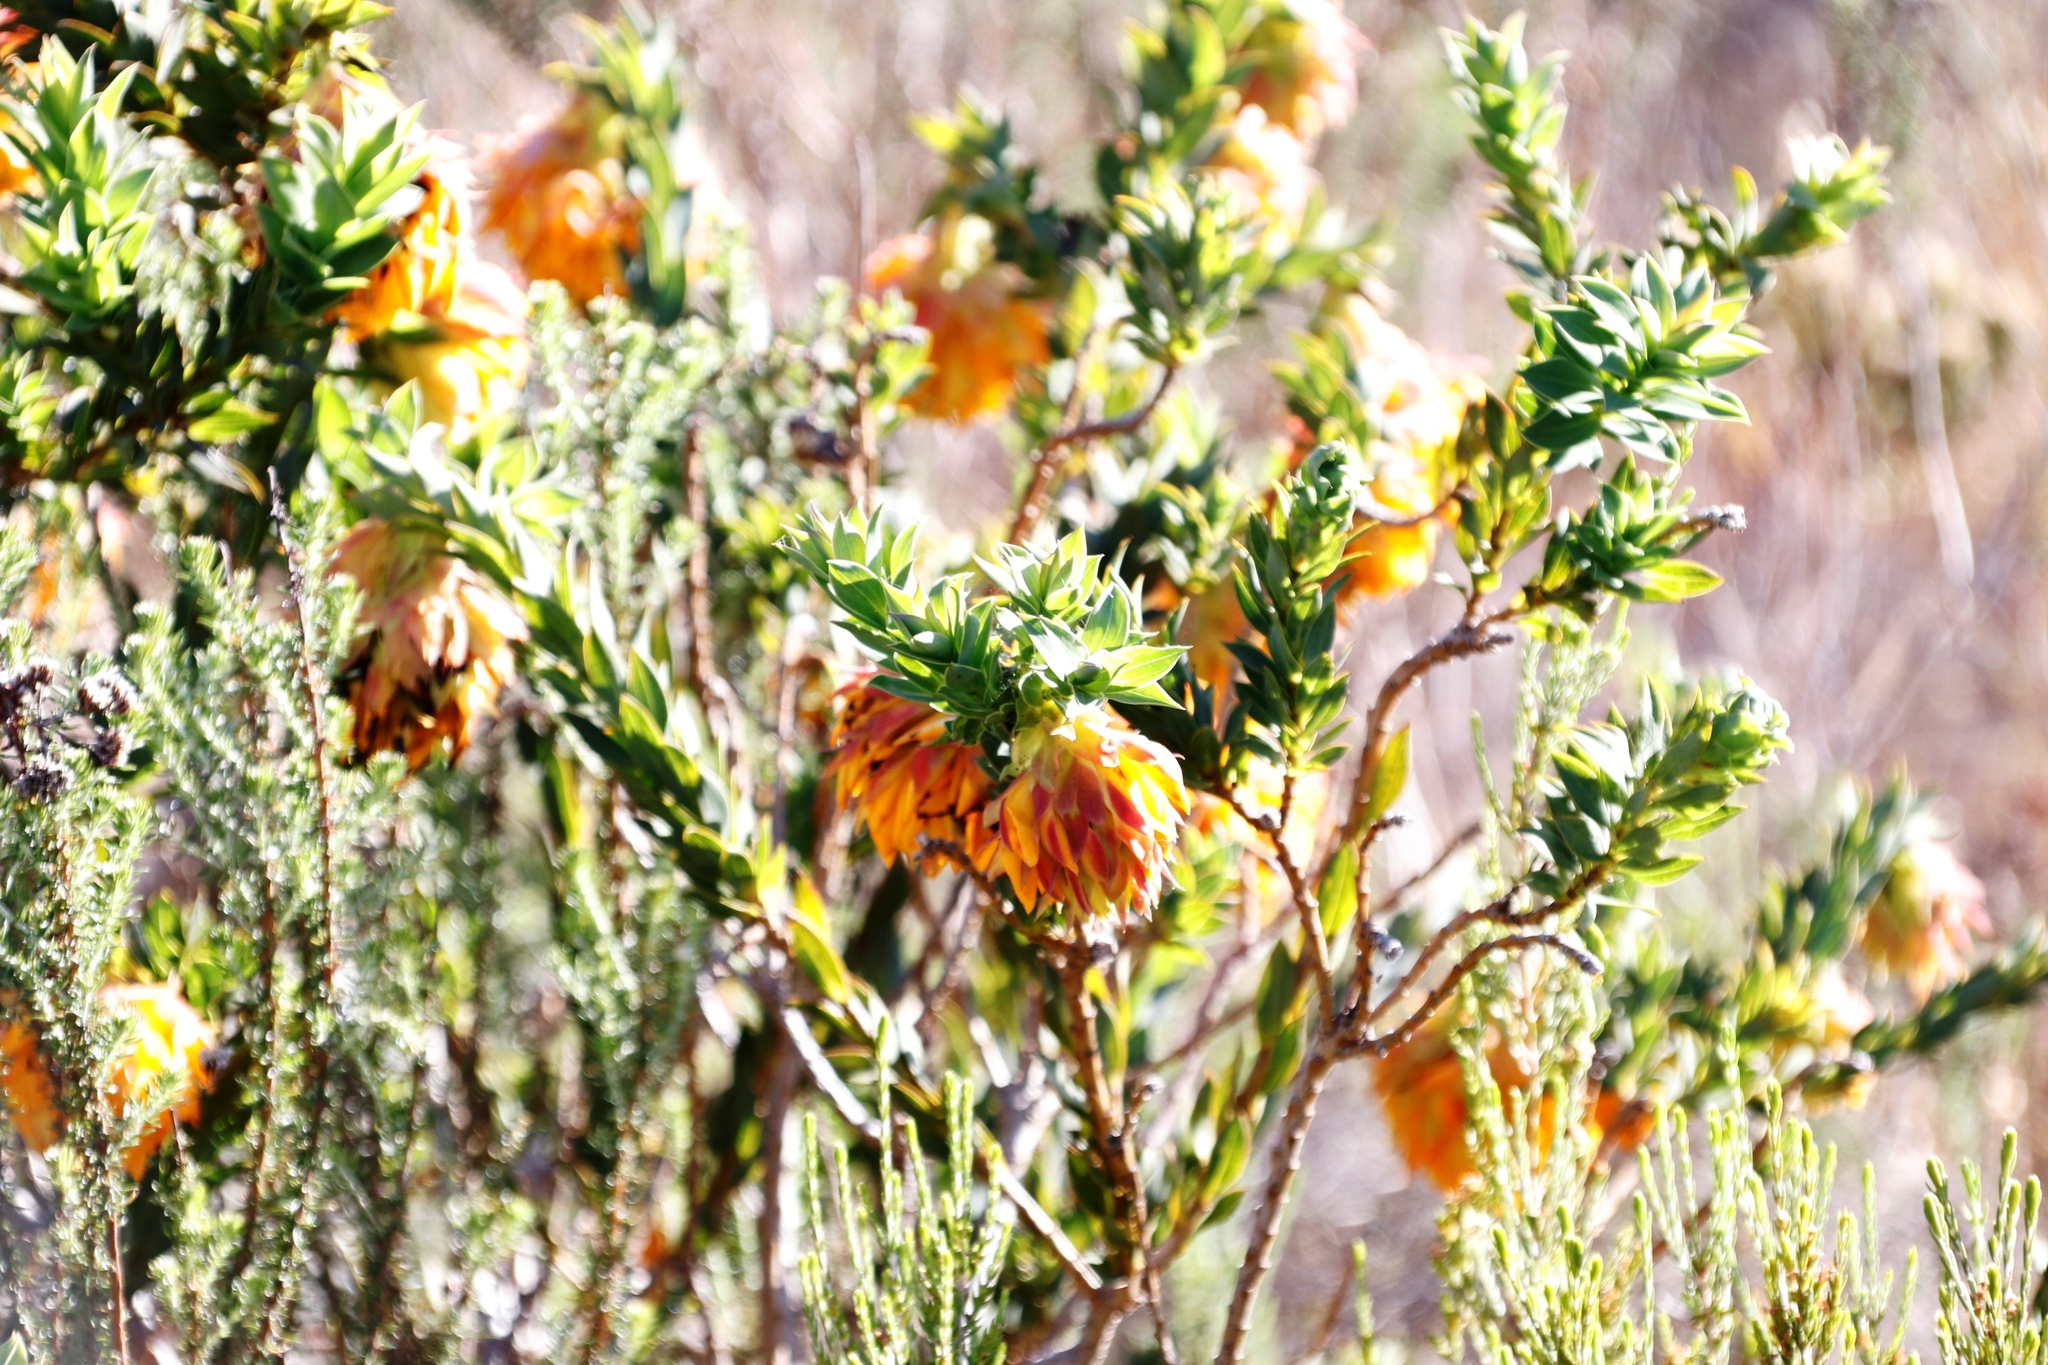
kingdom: Plantae
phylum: Tracheophyta
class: Magnoliopsida
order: Fabales
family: Fabaceae
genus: Liparia
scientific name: Liparia splendens
